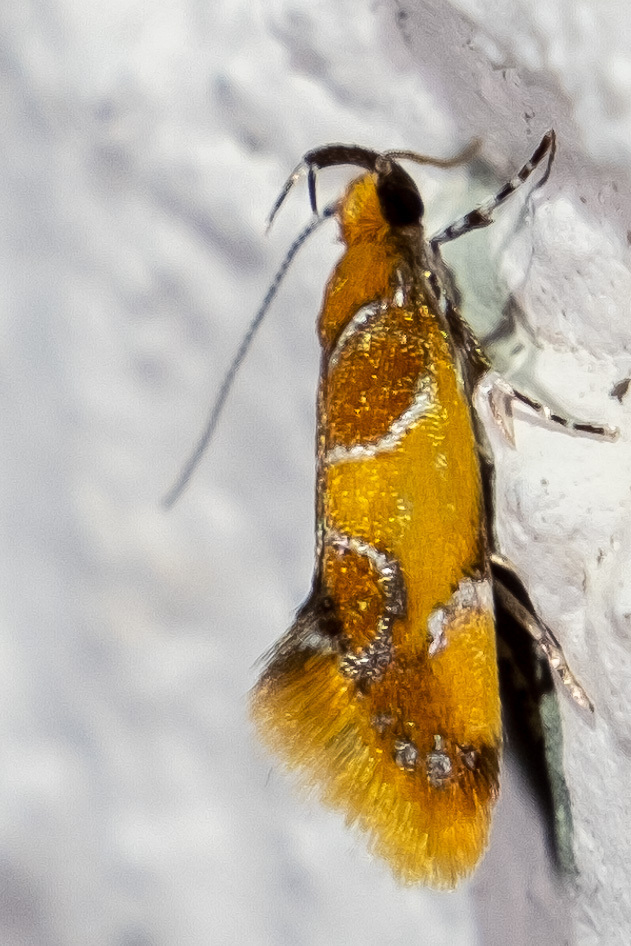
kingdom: Animalia
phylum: Arthropoda
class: Insecta
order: Lepidoptera
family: Oecophoridae
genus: Callima
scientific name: Callima argenticinctella
